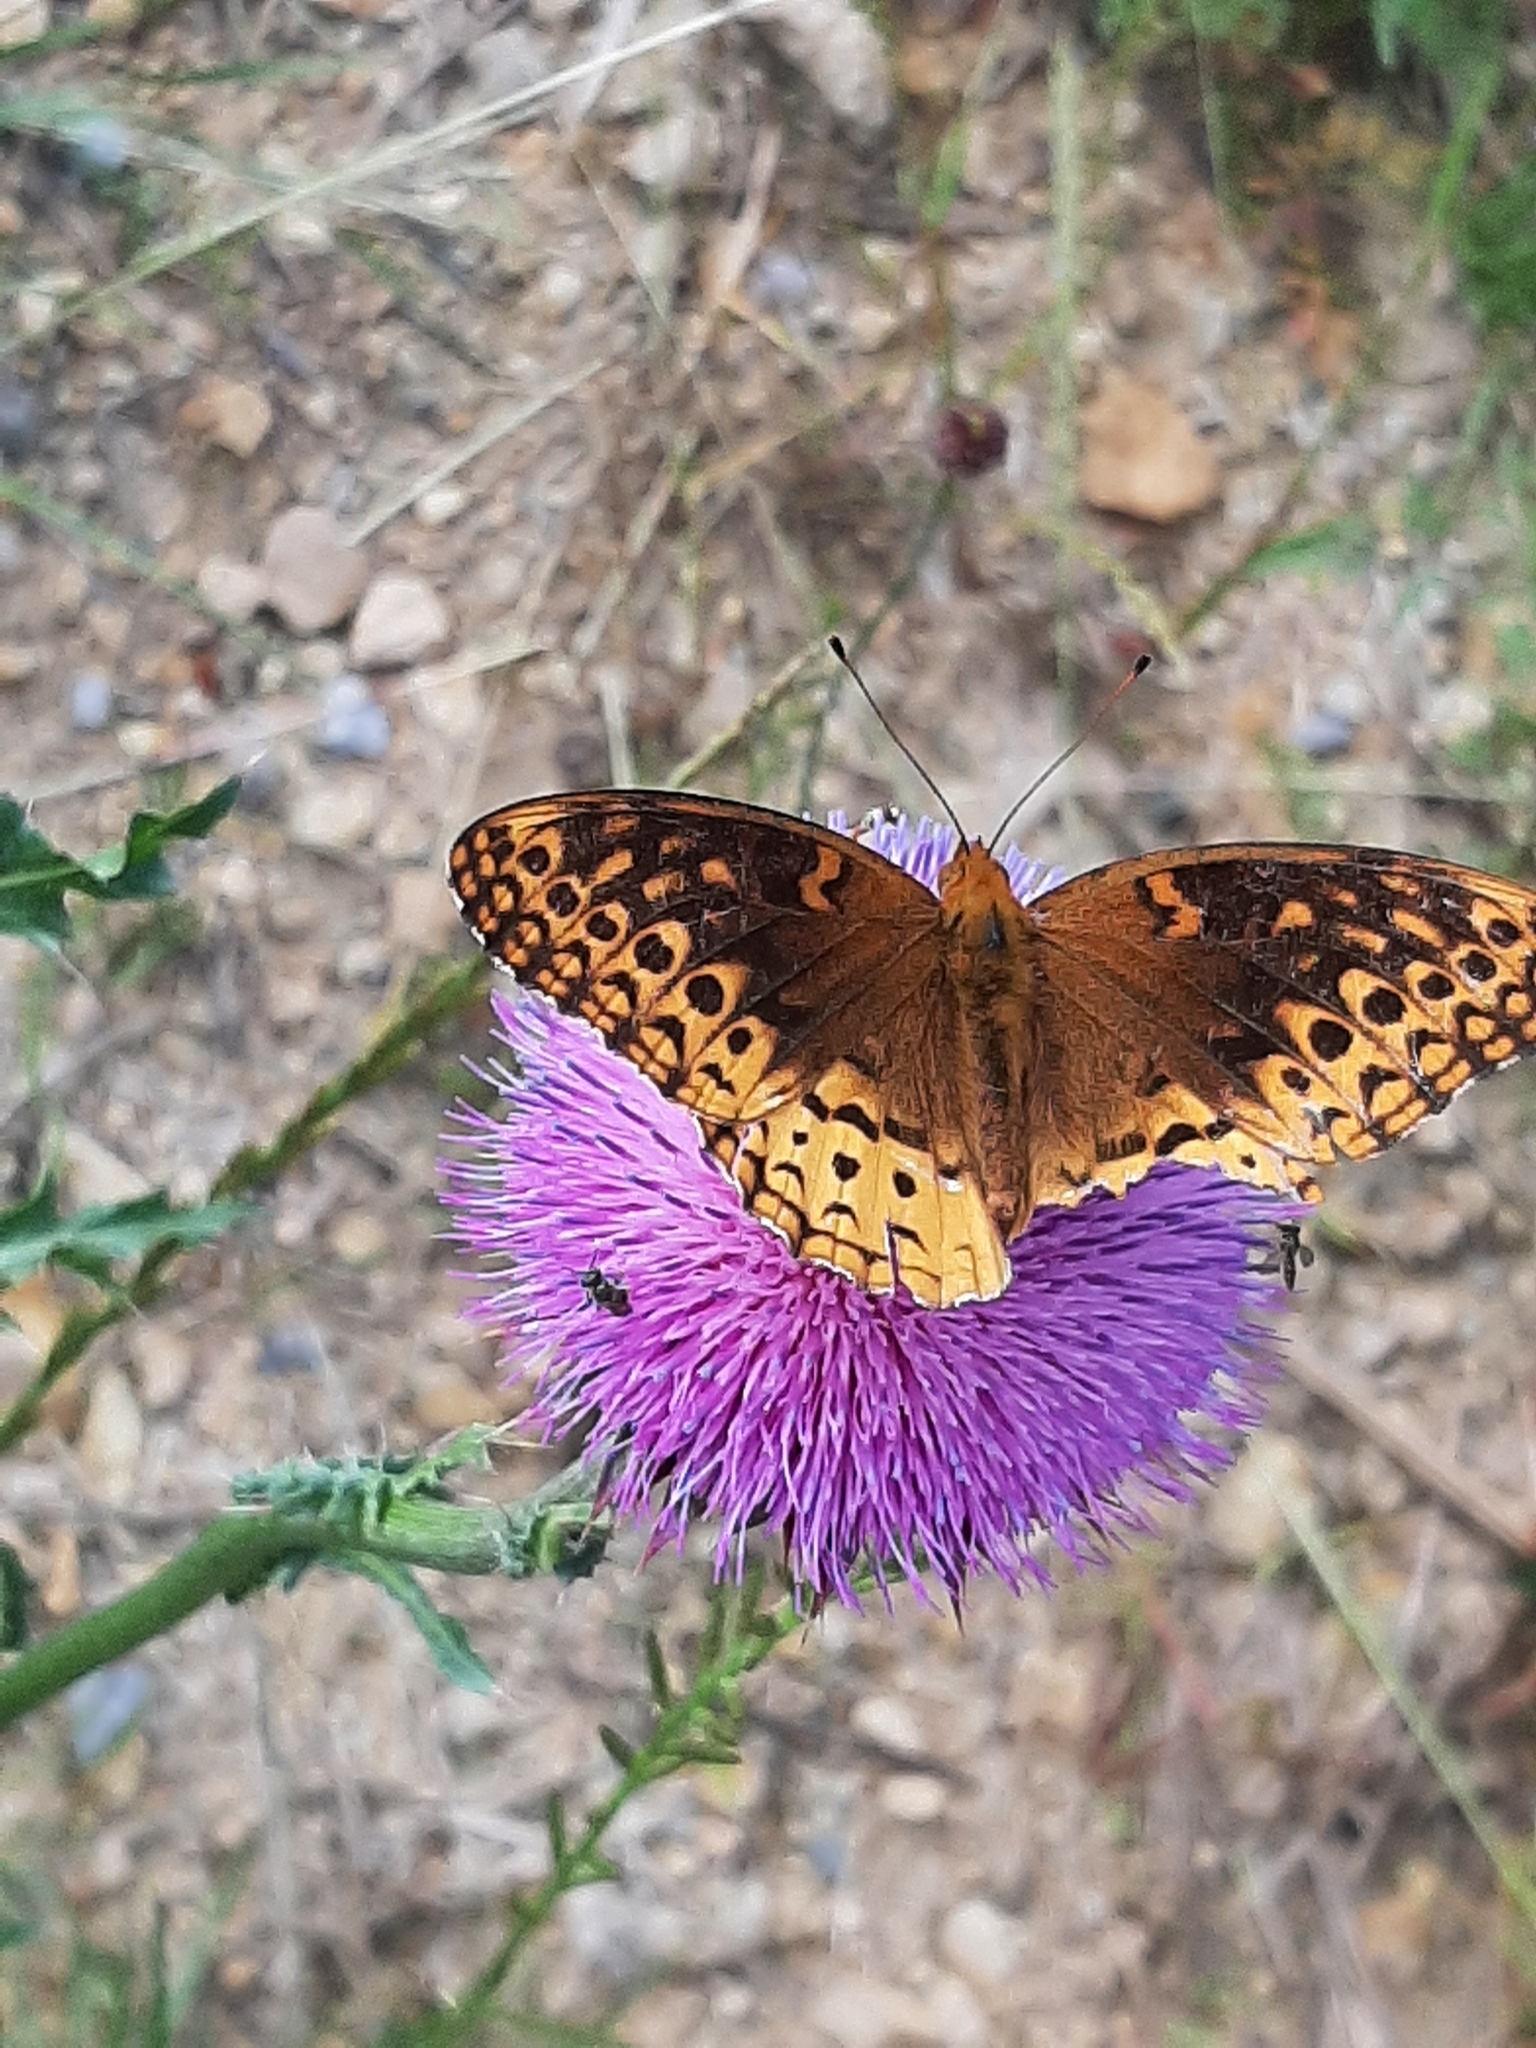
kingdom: Animalia
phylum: Arthropoda
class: Insecta
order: Lepidoptera
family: Nymphalidae
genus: Speyeria
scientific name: Speyeria cybele
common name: Great spangled fritillary
